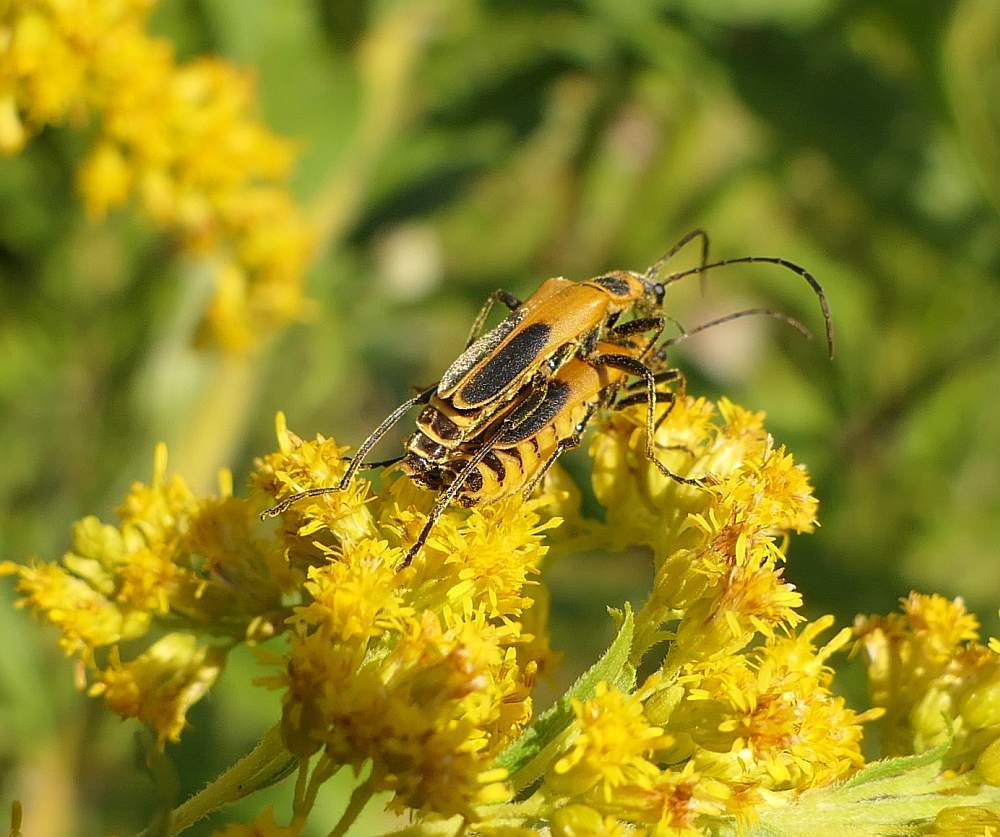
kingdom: Animalia
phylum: Arthropoda
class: Insecta
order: Coleoptera
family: Cantharidae
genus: Chauliognathus
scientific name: Chauliognathus pensylvanicus
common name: Goldenrod soldier beetle
